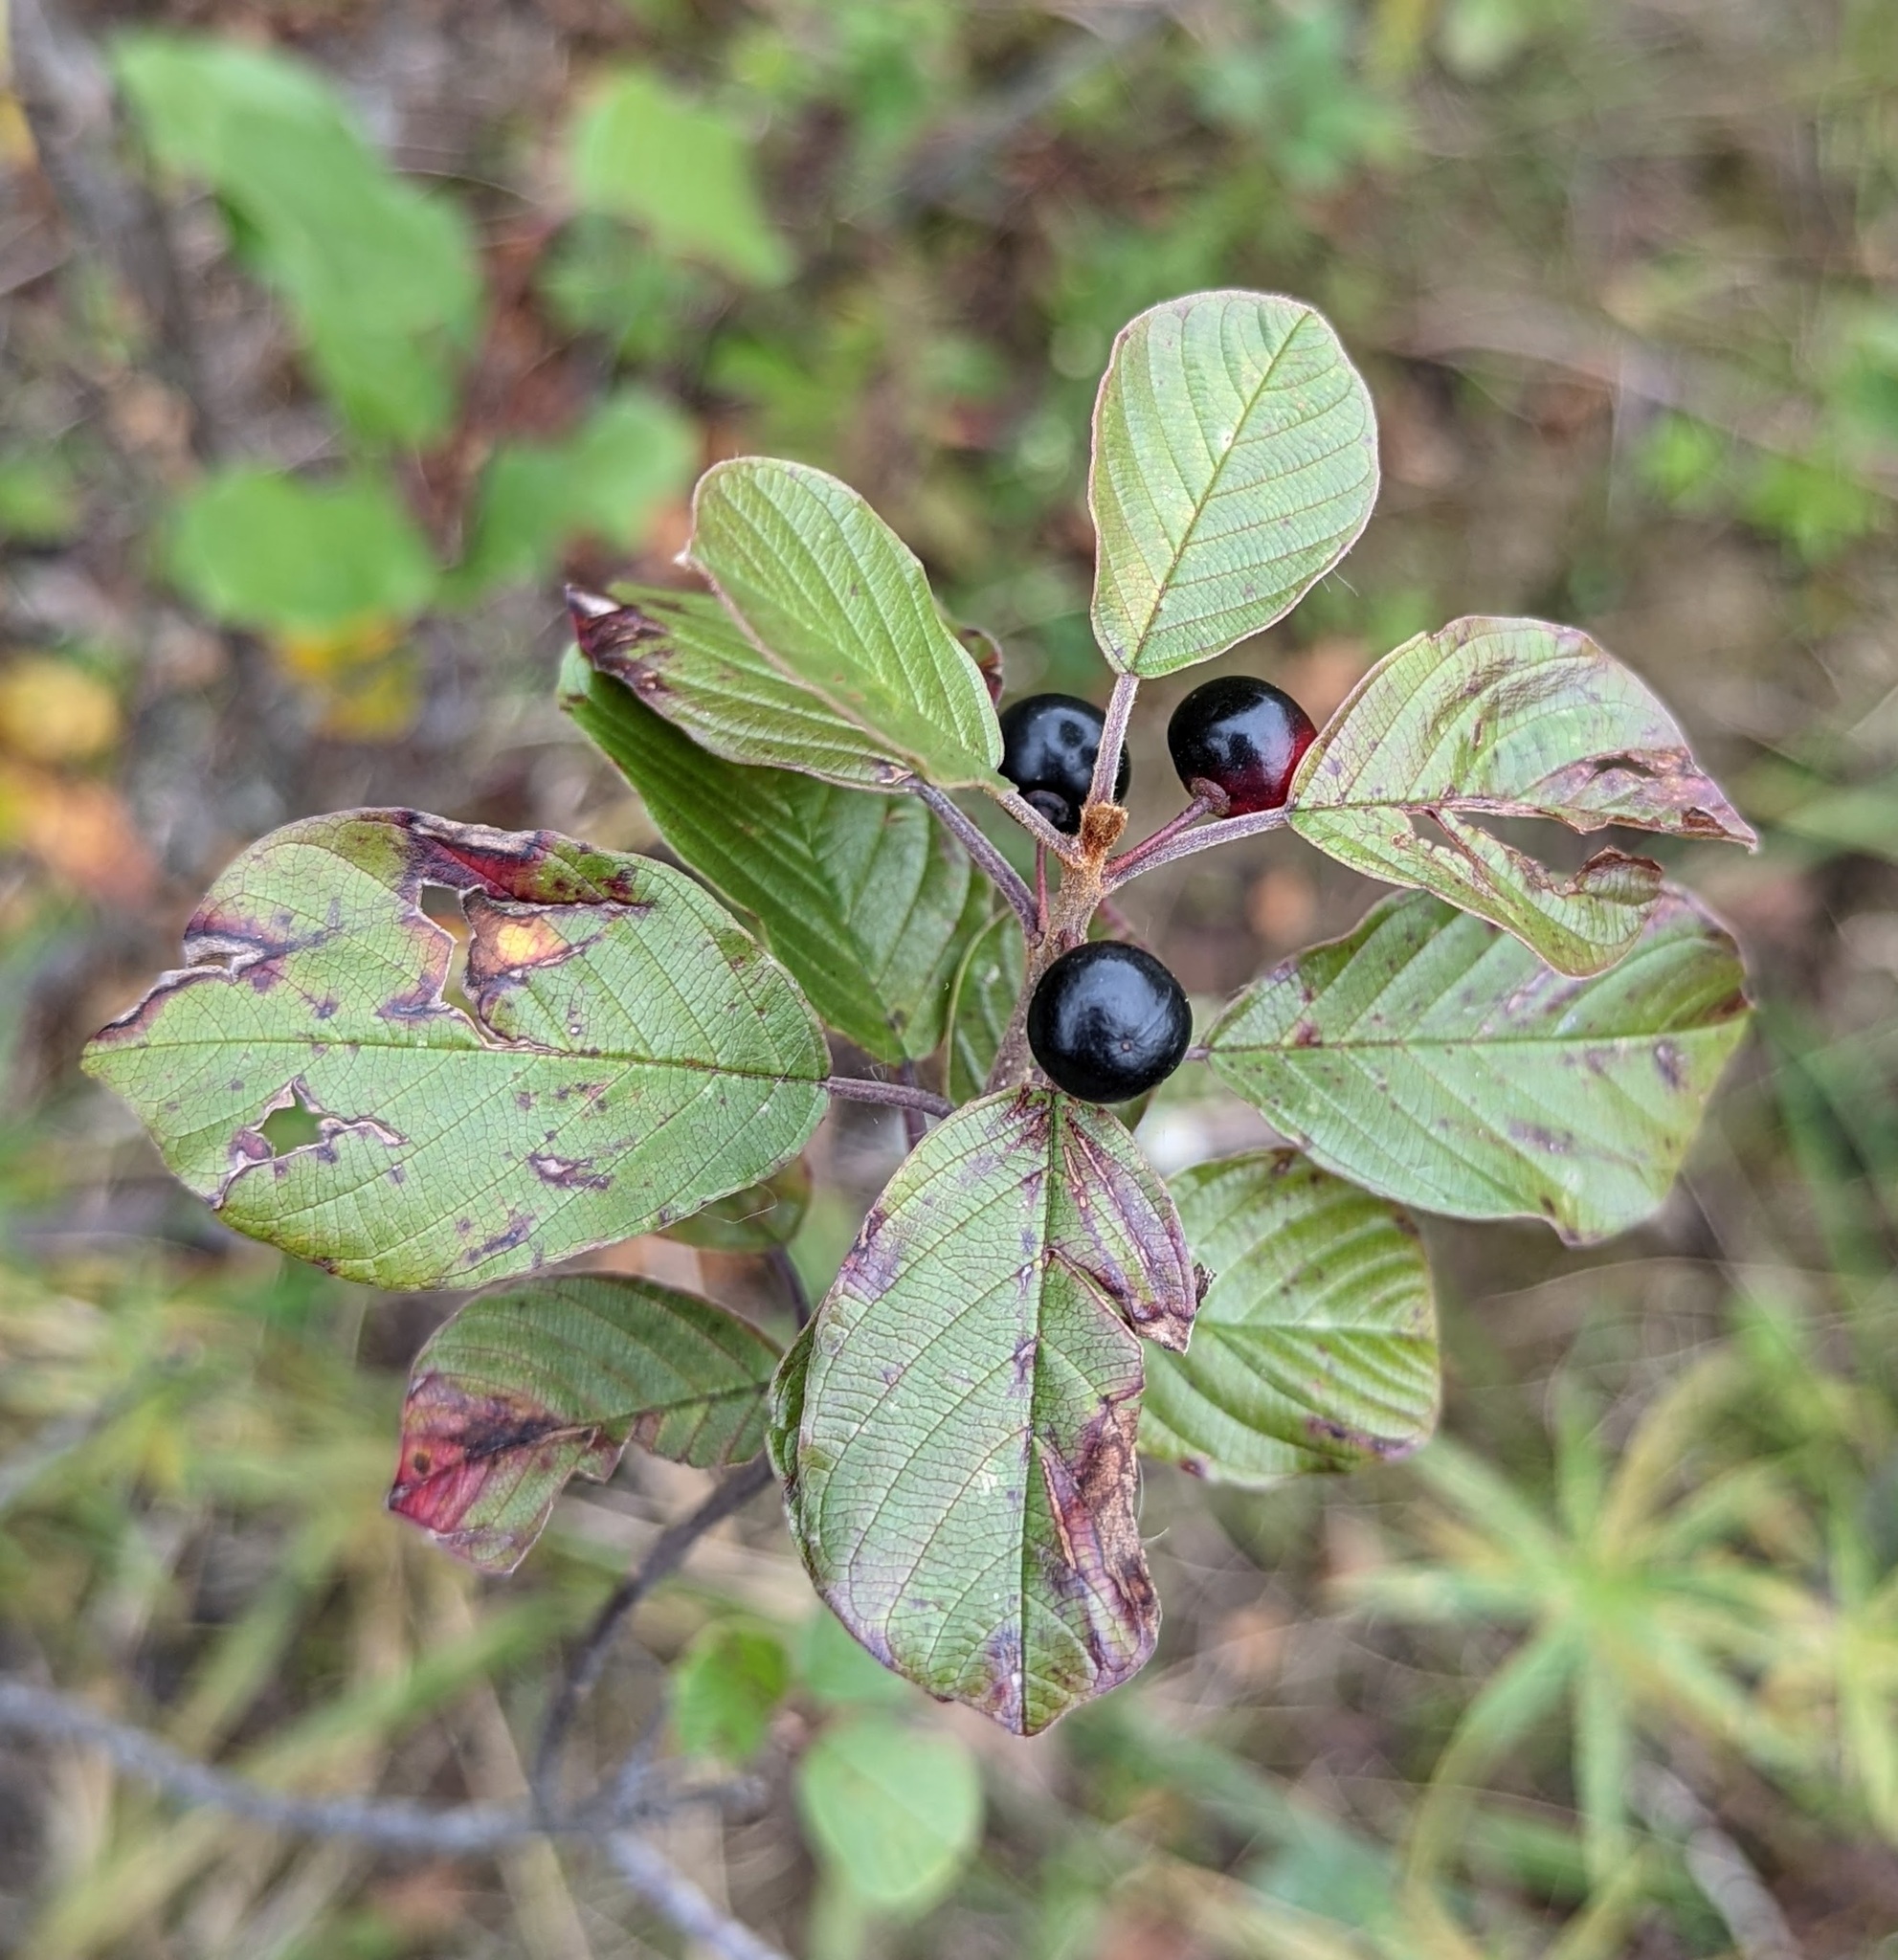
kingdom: Plantae
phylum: Tracheophyta
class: Magnoliopsida
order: Rosales
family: Rhamnaceae
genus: Frangula
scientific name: Frangula alnus
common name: Alder buckthorn
